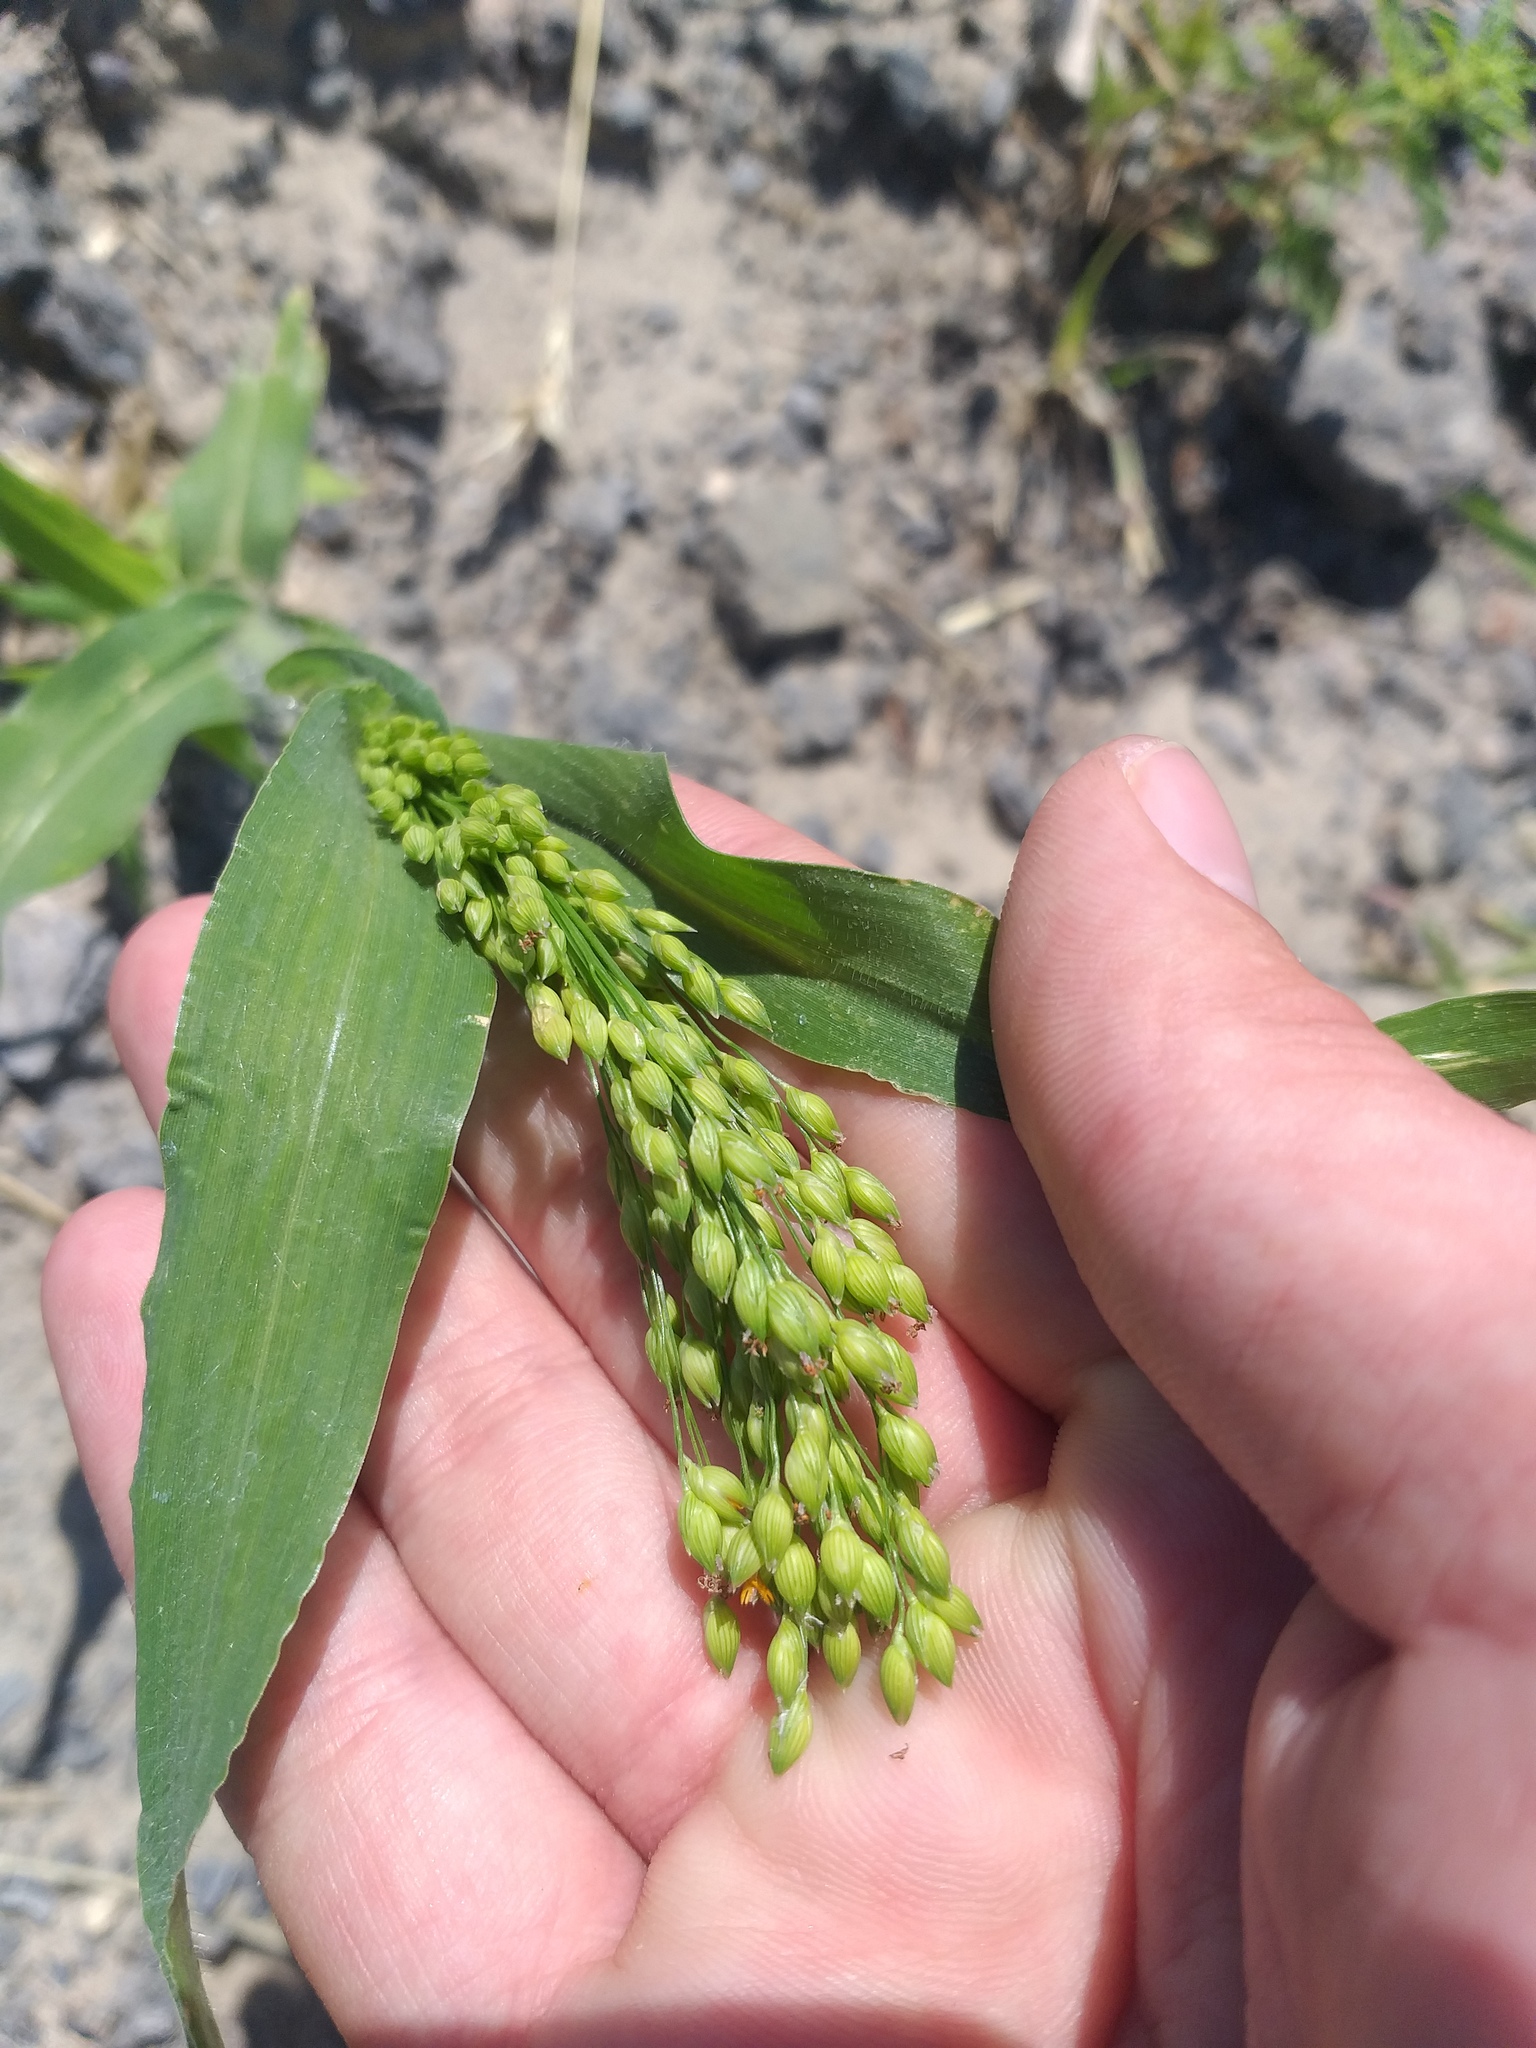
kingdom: Plantae
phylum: Tracheophyta
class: Liliopsida
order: Poales
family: Poaceae
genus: Panicum
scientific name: Panicum miliaceum
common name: Common millet
